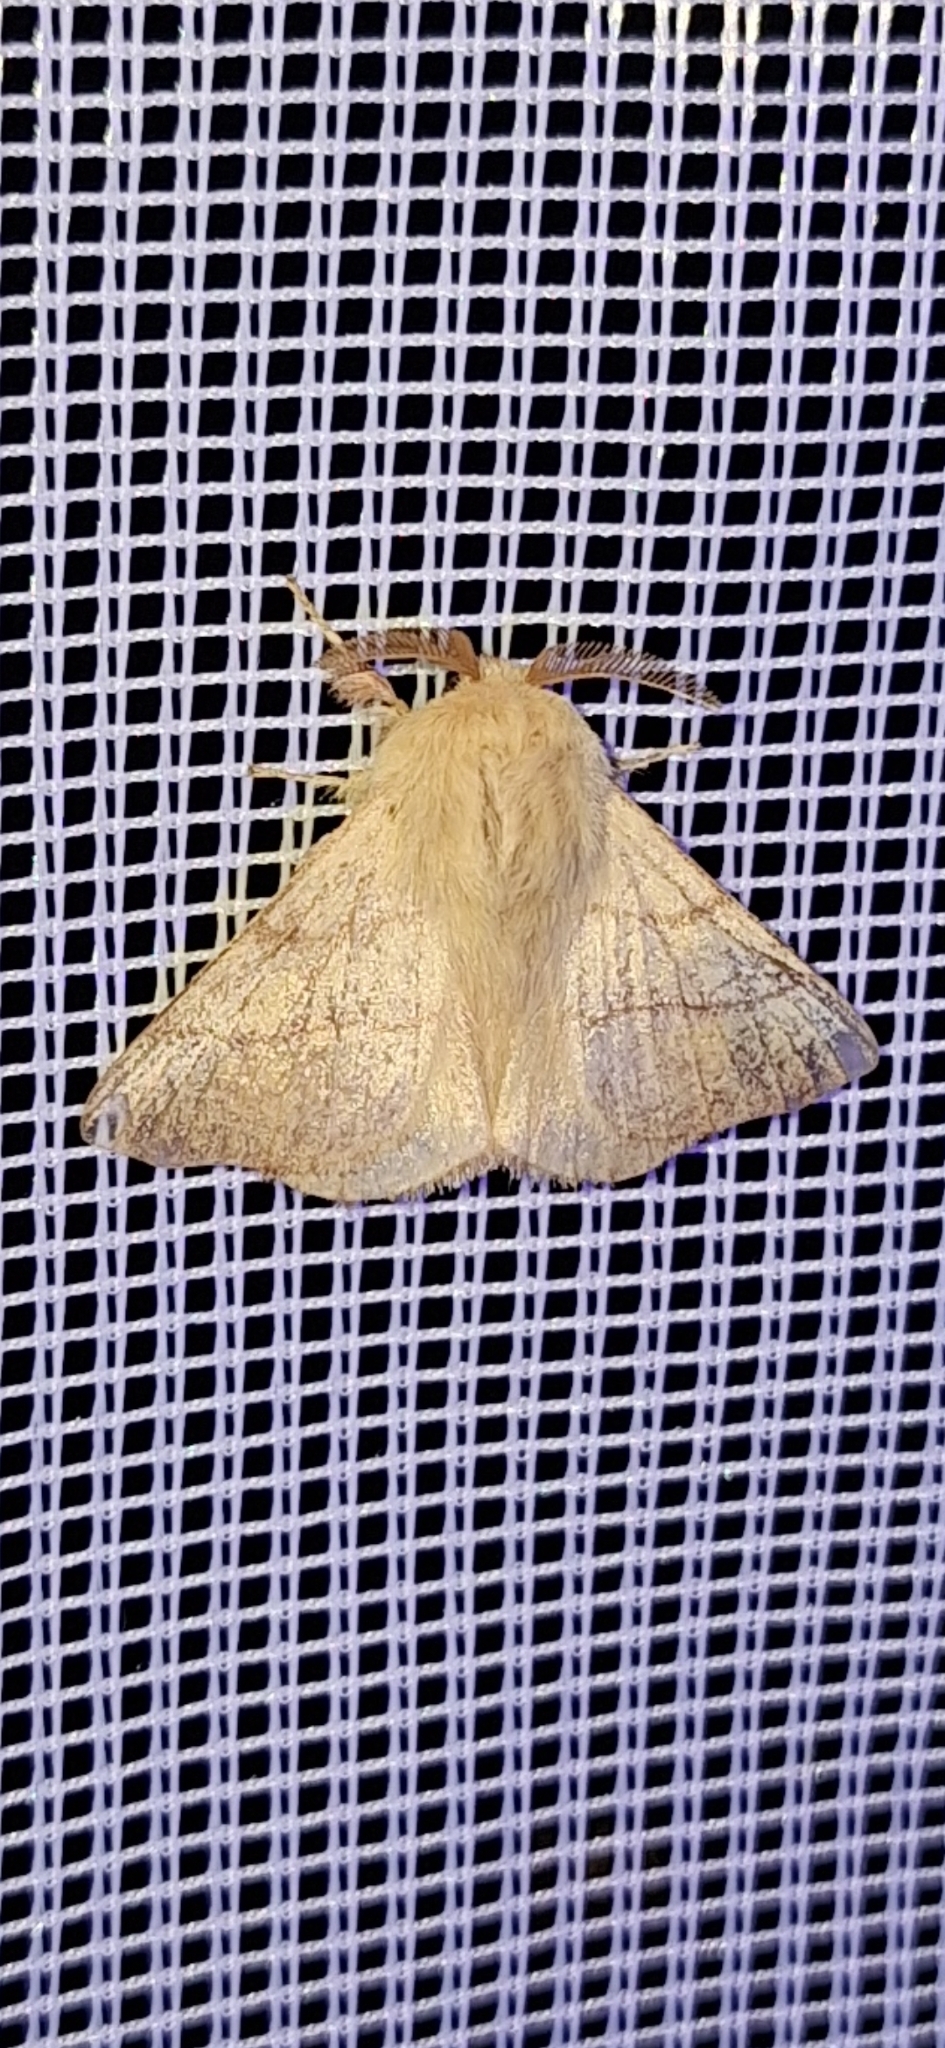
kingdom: Animalia
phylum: Arthropoda
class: Insecta
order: Lepidoptera
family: Lasiocampidae
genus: Malacosoma
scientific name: Malacosoma neustria
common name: The lackey
